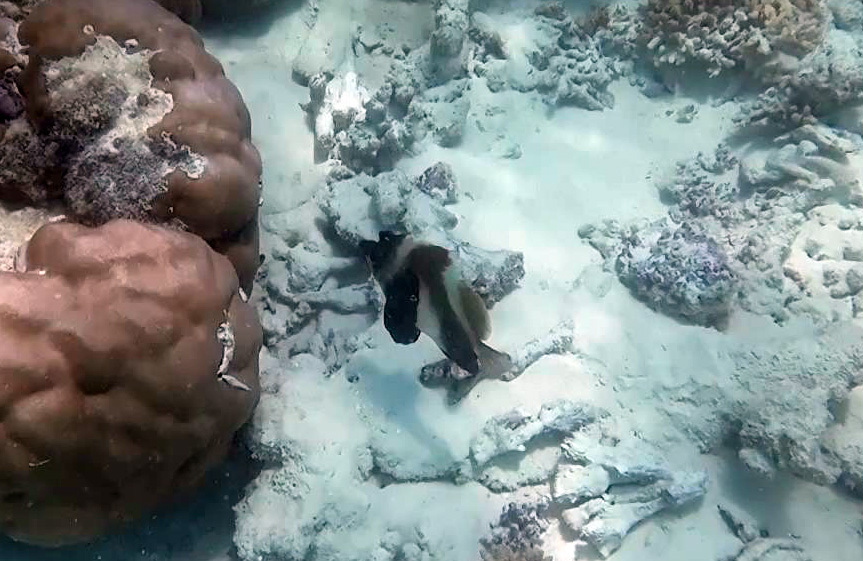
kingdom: Animalia
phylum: Chordata
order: Perciformes
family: Chaetodontidae
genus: Heniochus
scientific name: Heniochus pleurotaenia
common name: Indian ocean bannerfish
